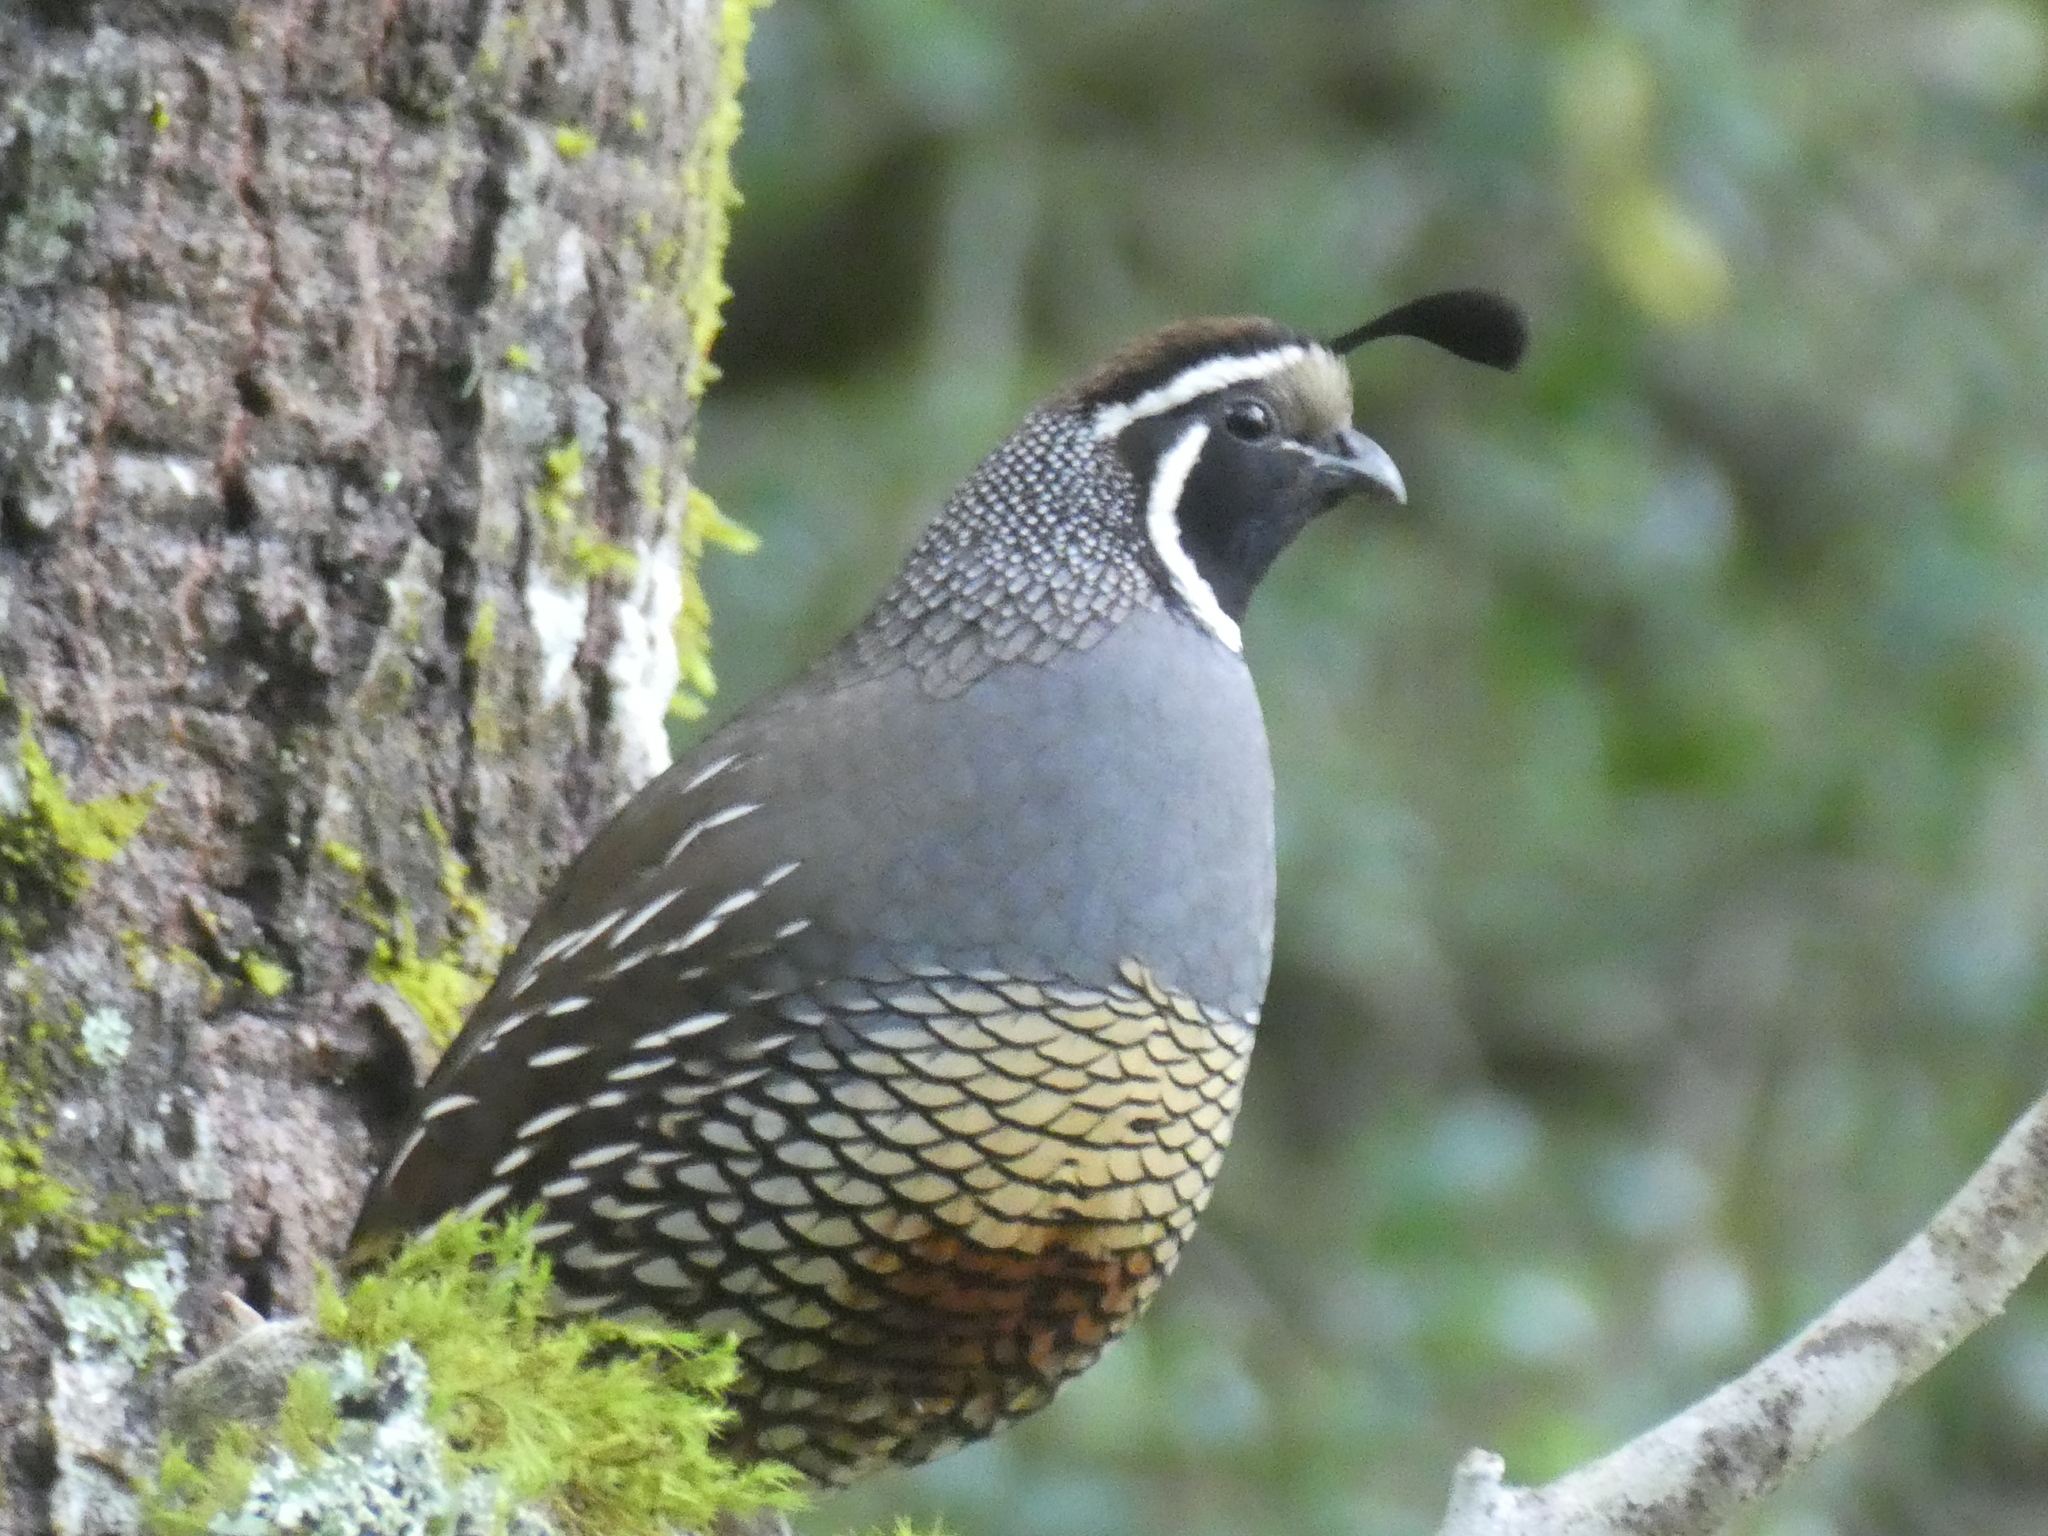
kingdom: Animalia
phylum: Chordata
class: Aves
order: Galliformes
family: Odontophoridae
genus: Callipepla
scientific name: Callipepla californica
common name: California quail
